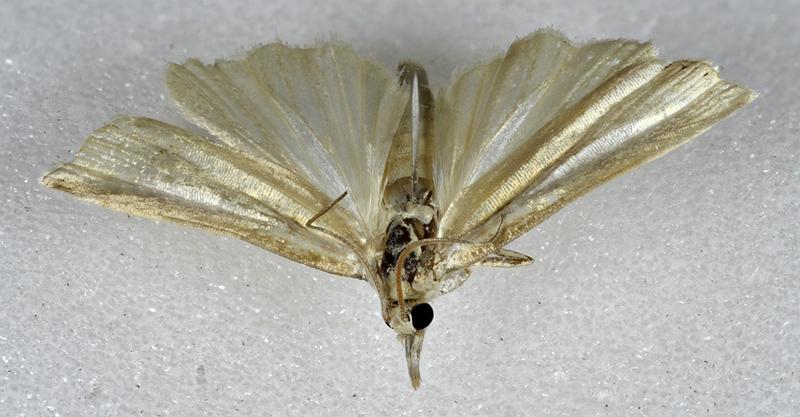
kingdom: Animalia
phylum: Arthropoda
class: Insecta
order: Lepidoptera
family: Crambidae
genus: Crambus
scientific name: Crambus praefectellus
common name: Common grass-veneer
